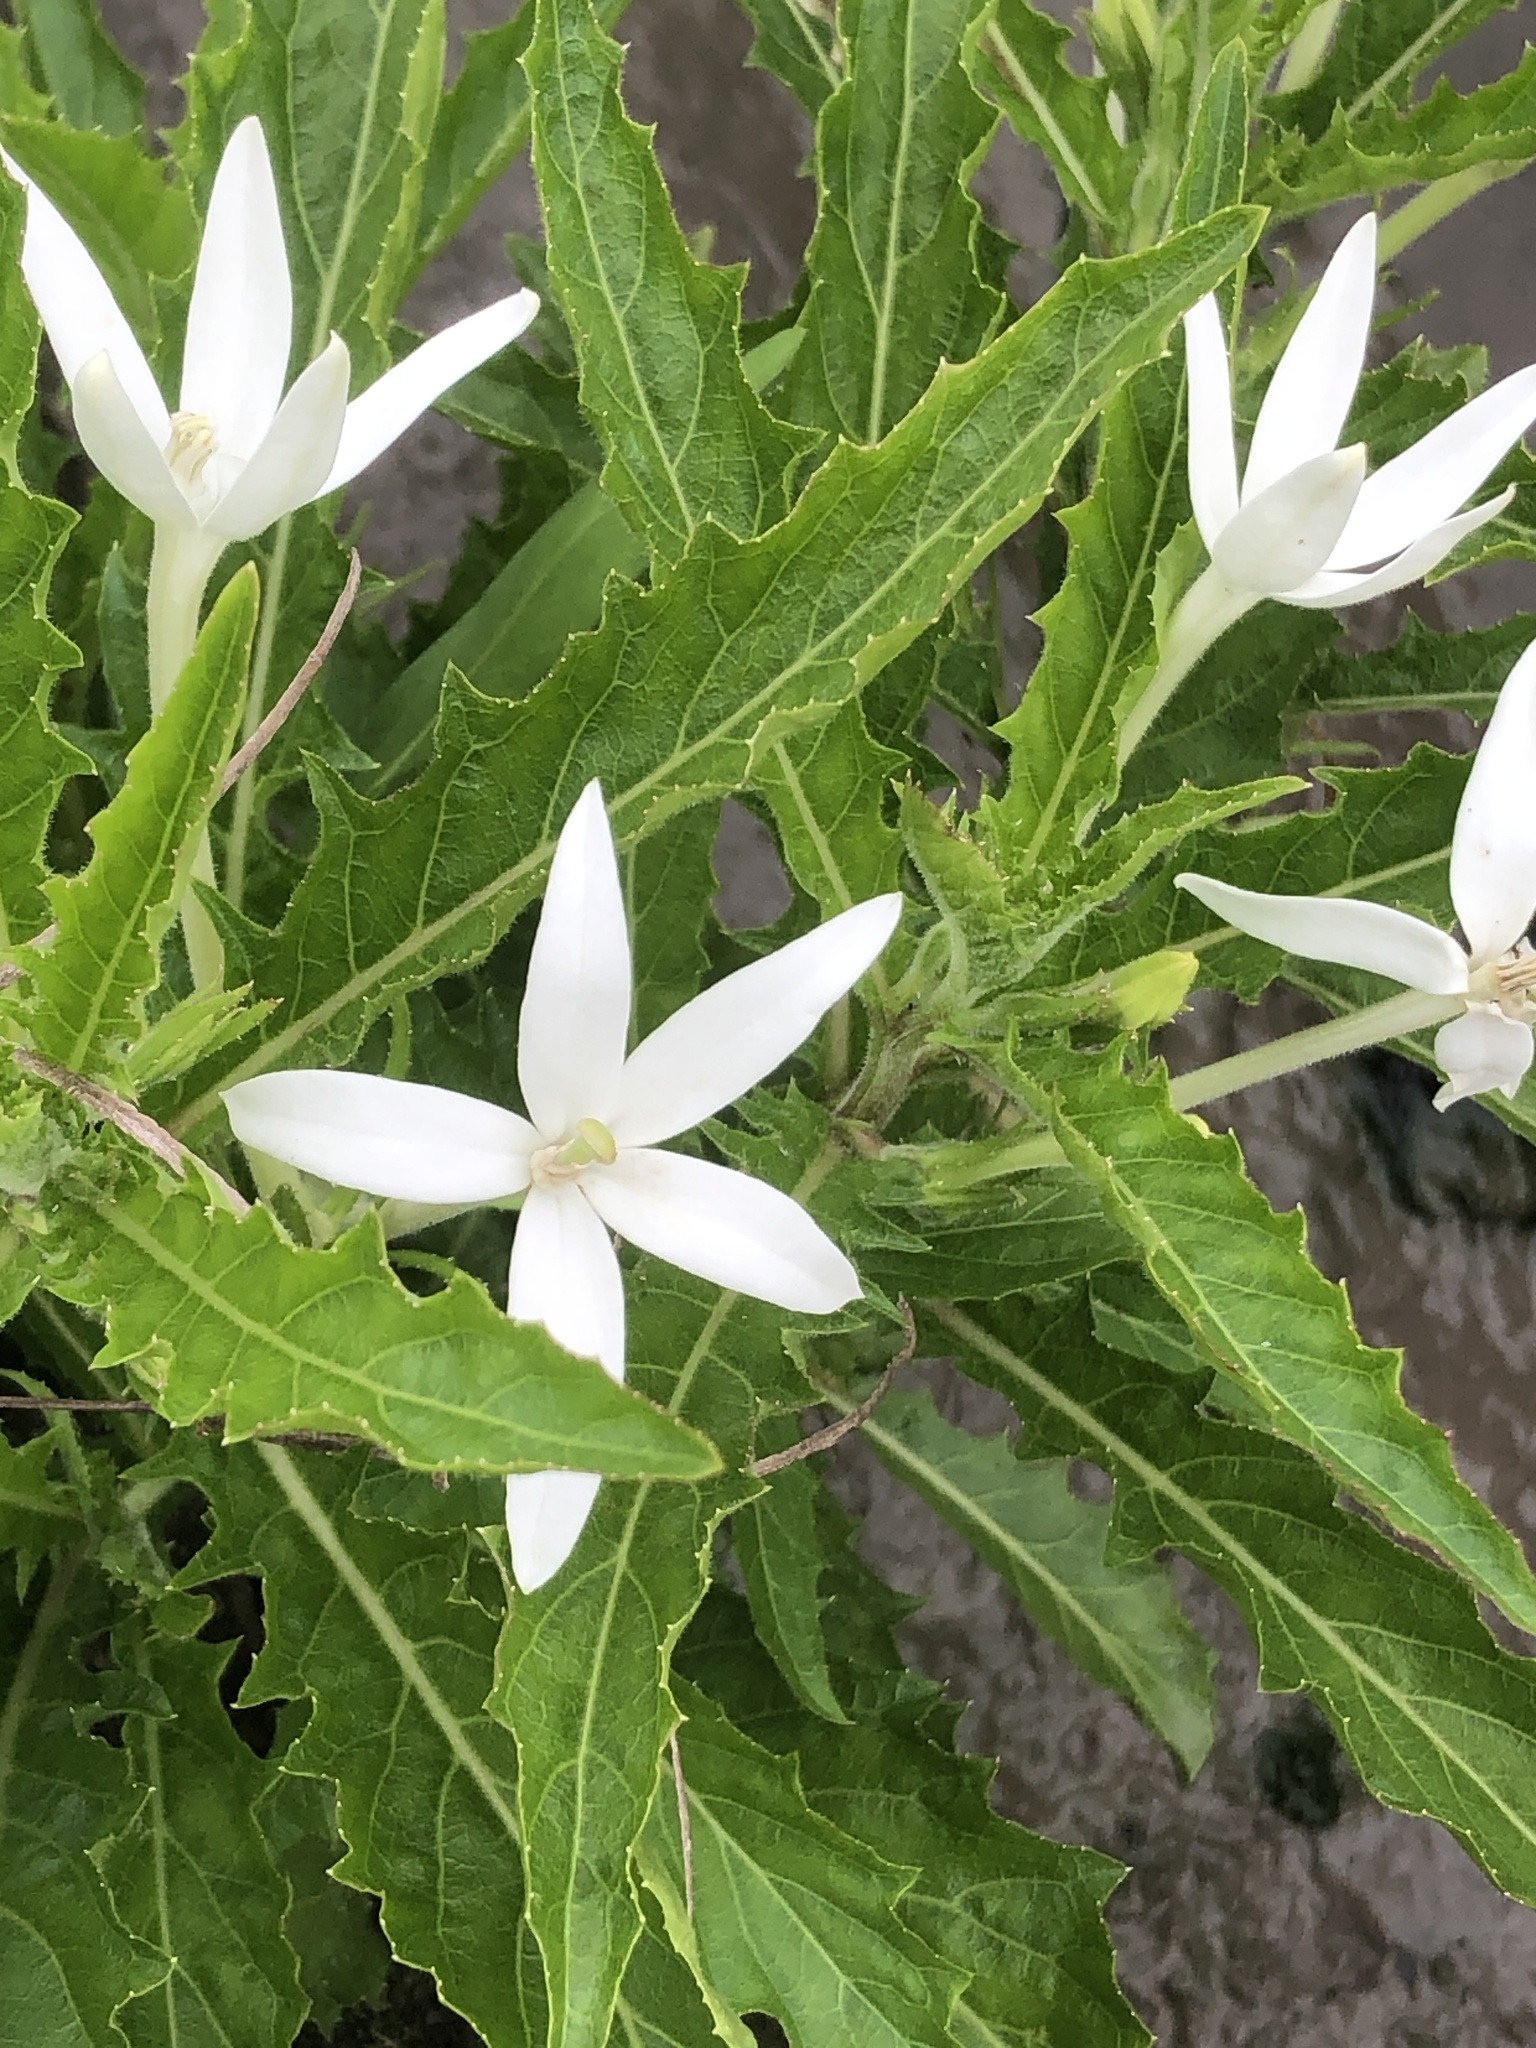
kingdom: Plantae
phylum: Tracheophyta
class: Magnoliopsida
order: Asterales
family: Campanulaceae
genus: Hippobroma
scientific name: Hippobroma longiflora
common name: Madamfate
